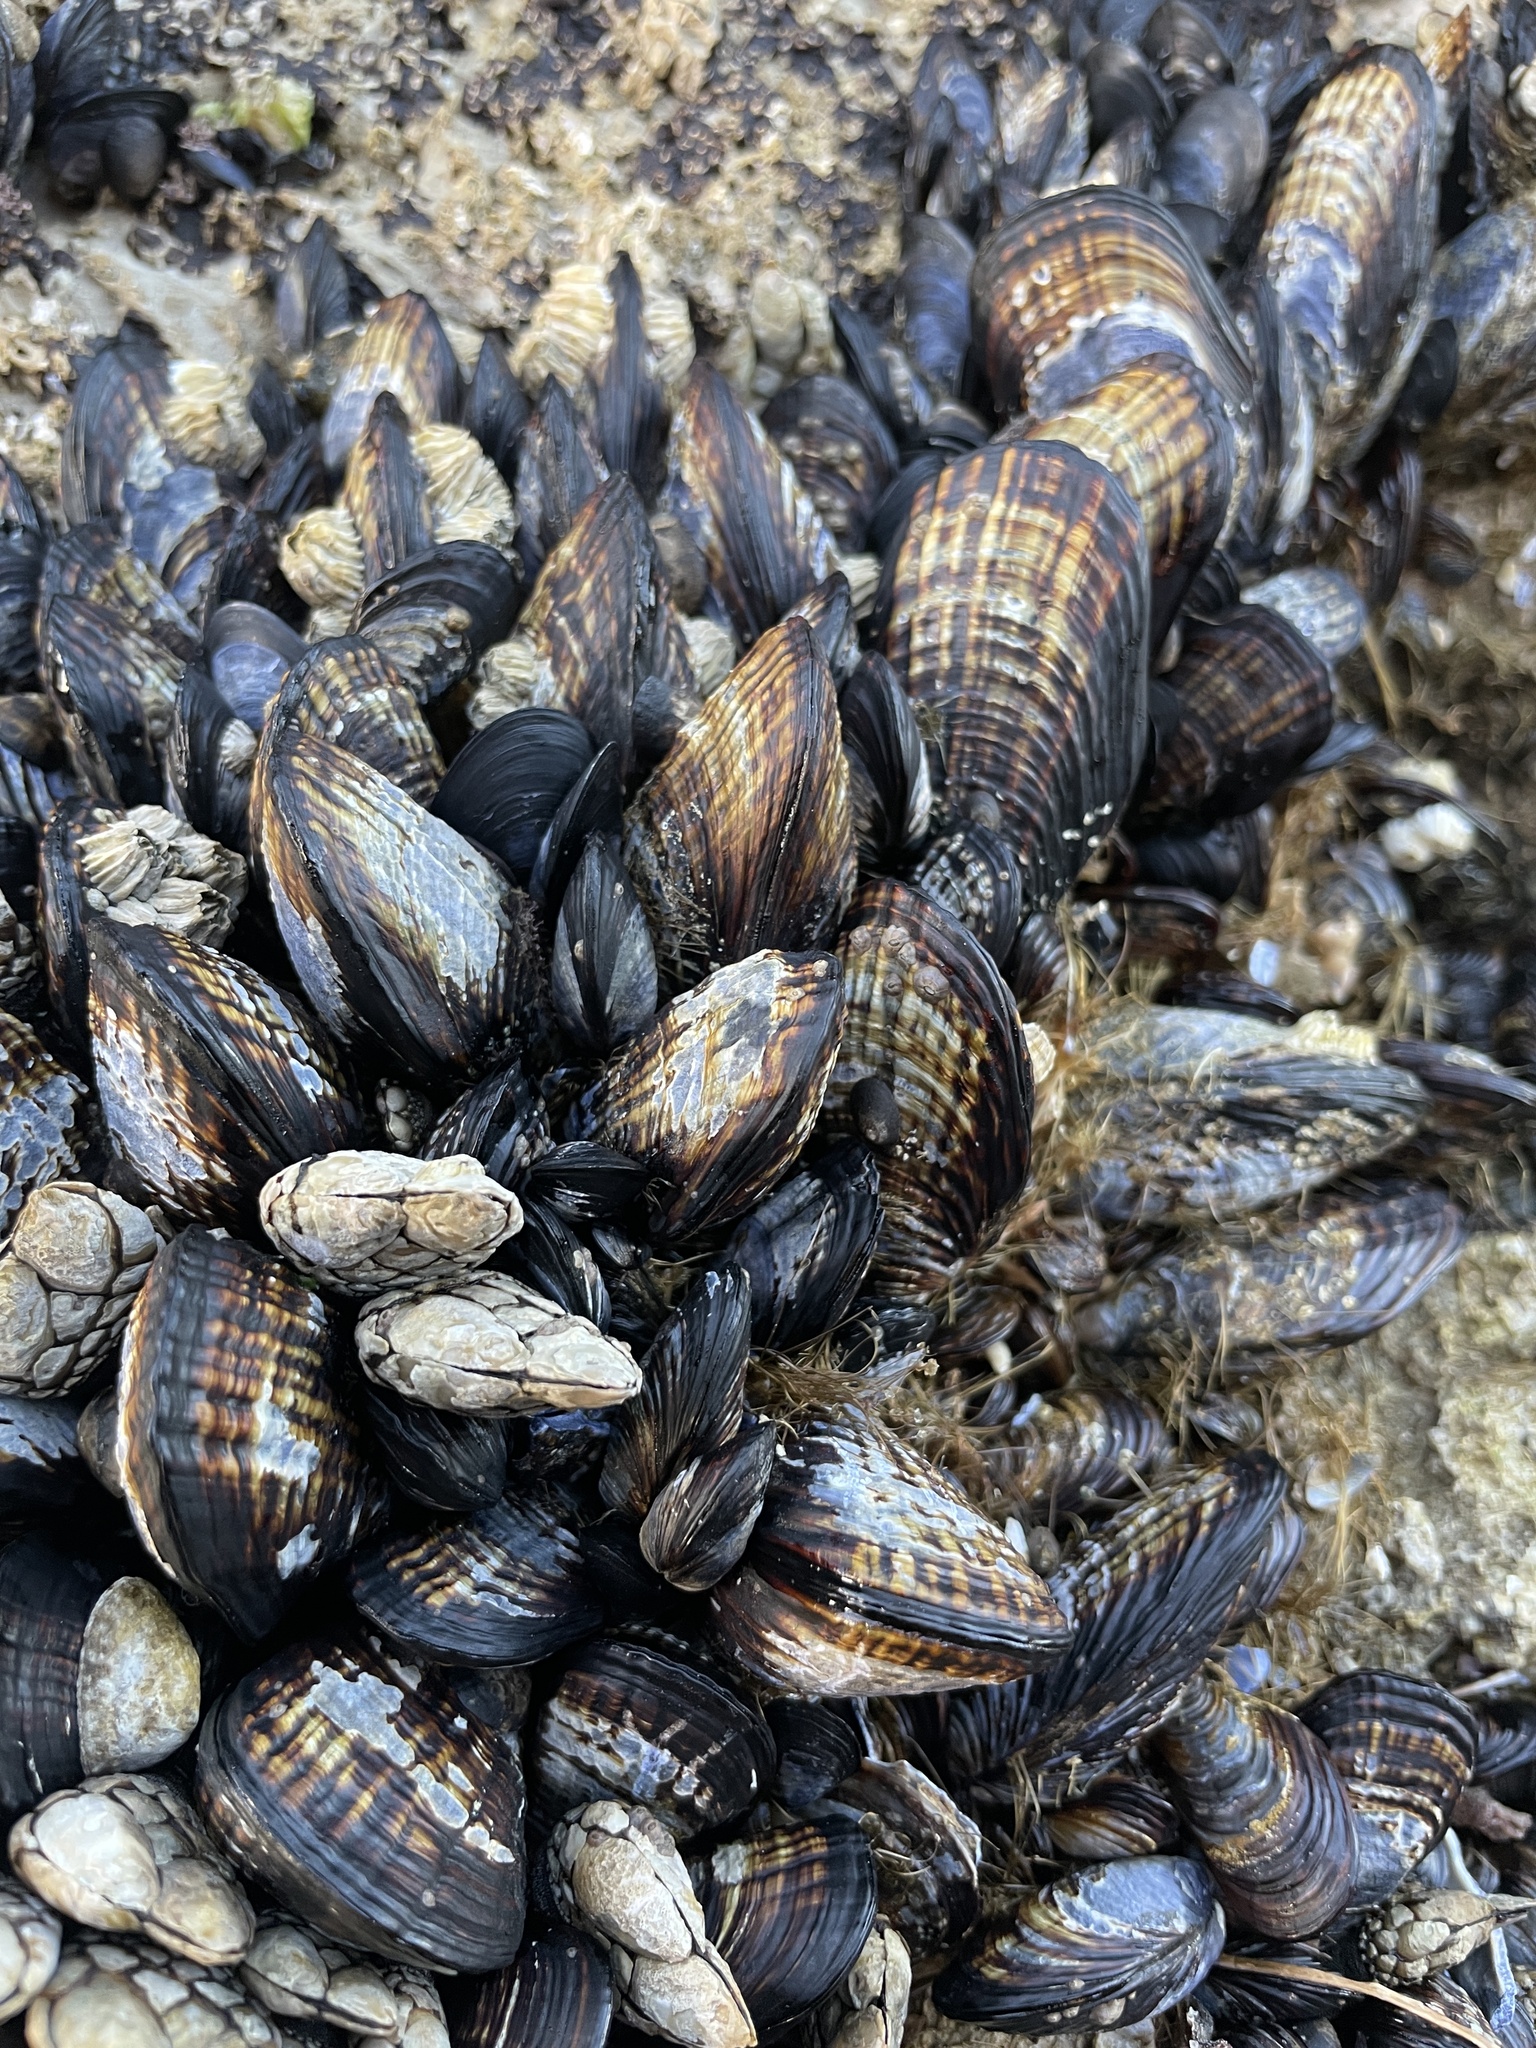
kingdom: Animalia
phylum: Mollusca
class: Bivalvia
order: Mytilida
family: Mytilidae
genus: Mytilus
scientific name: Mytilus californianus
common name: California mussel
